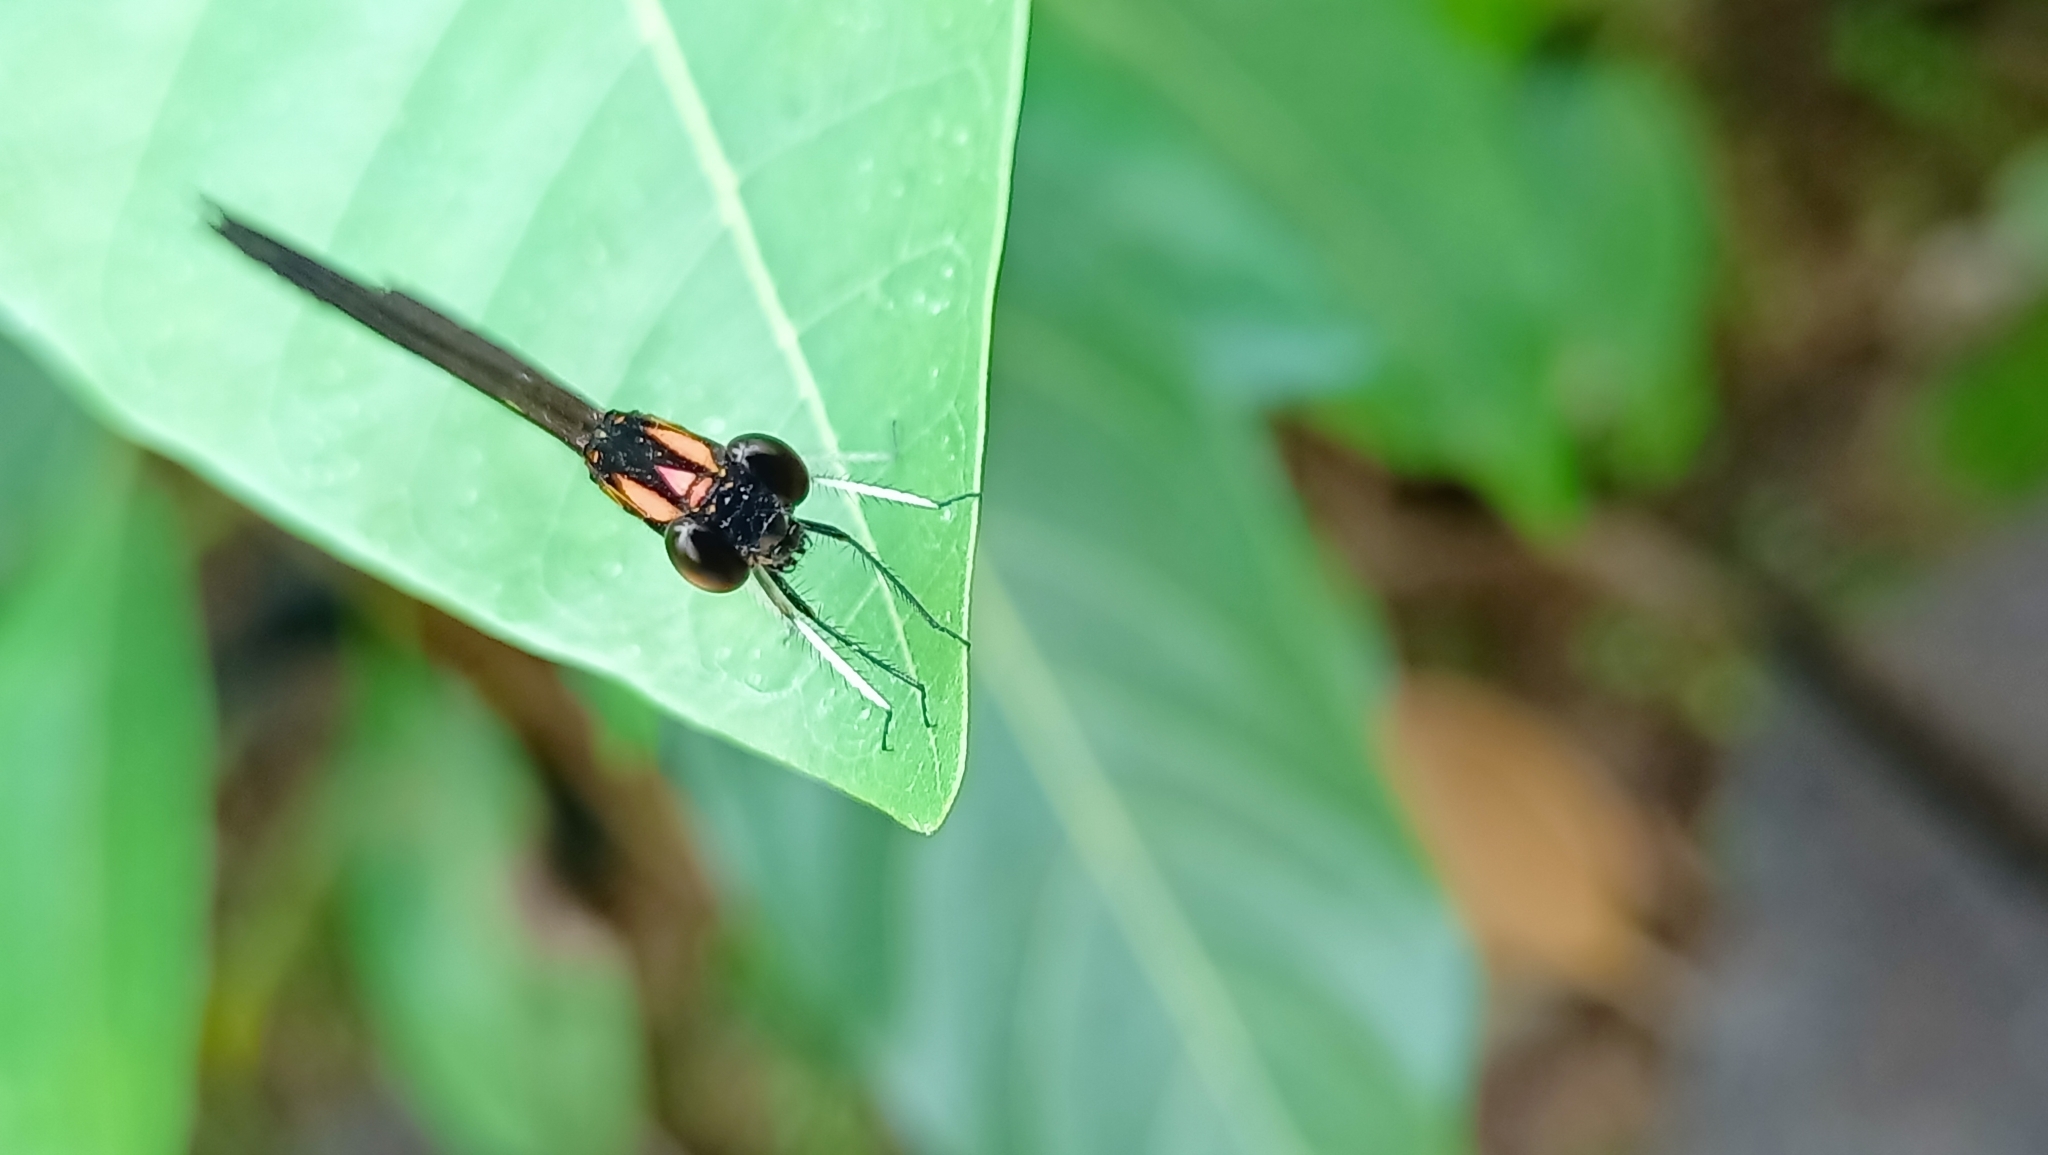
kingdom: Animalia
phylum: Arthropoda
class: Insecta
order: Odonata
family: Chlorocyphidae
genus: Heliocypha
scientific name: Heliocypha bisignata
